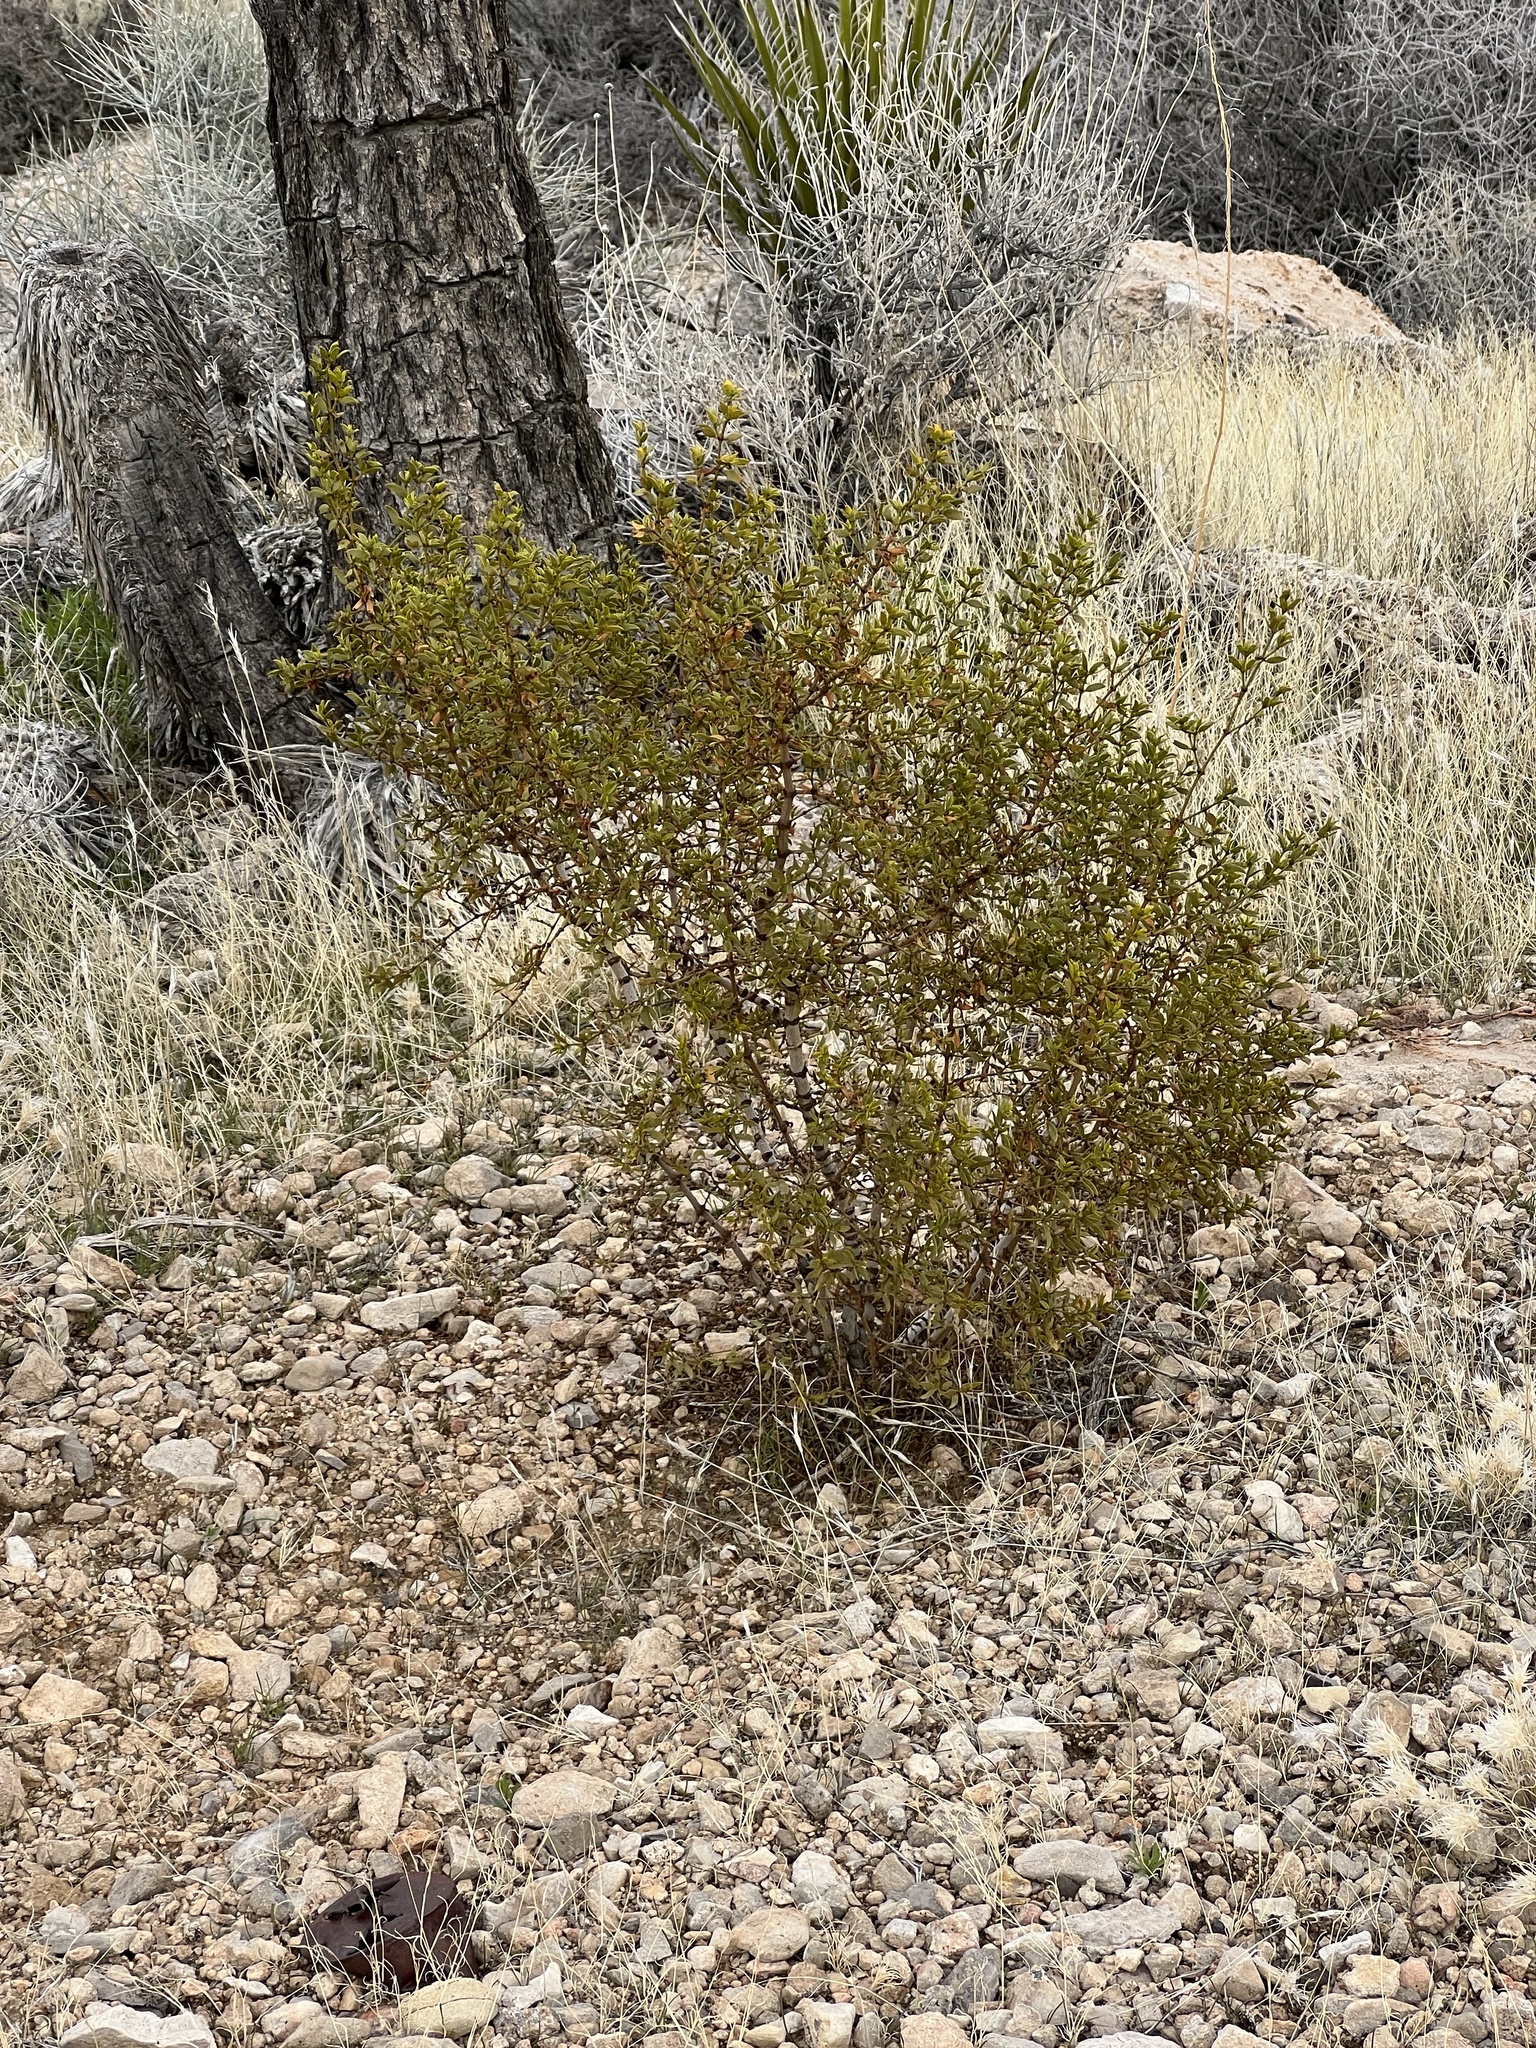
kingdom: Plantae
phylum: Tracheophyta
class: Magnoliopsida
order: Zygophyllales
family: Zygophyllaceae
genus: Larrea
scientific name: Larrea tridentata
